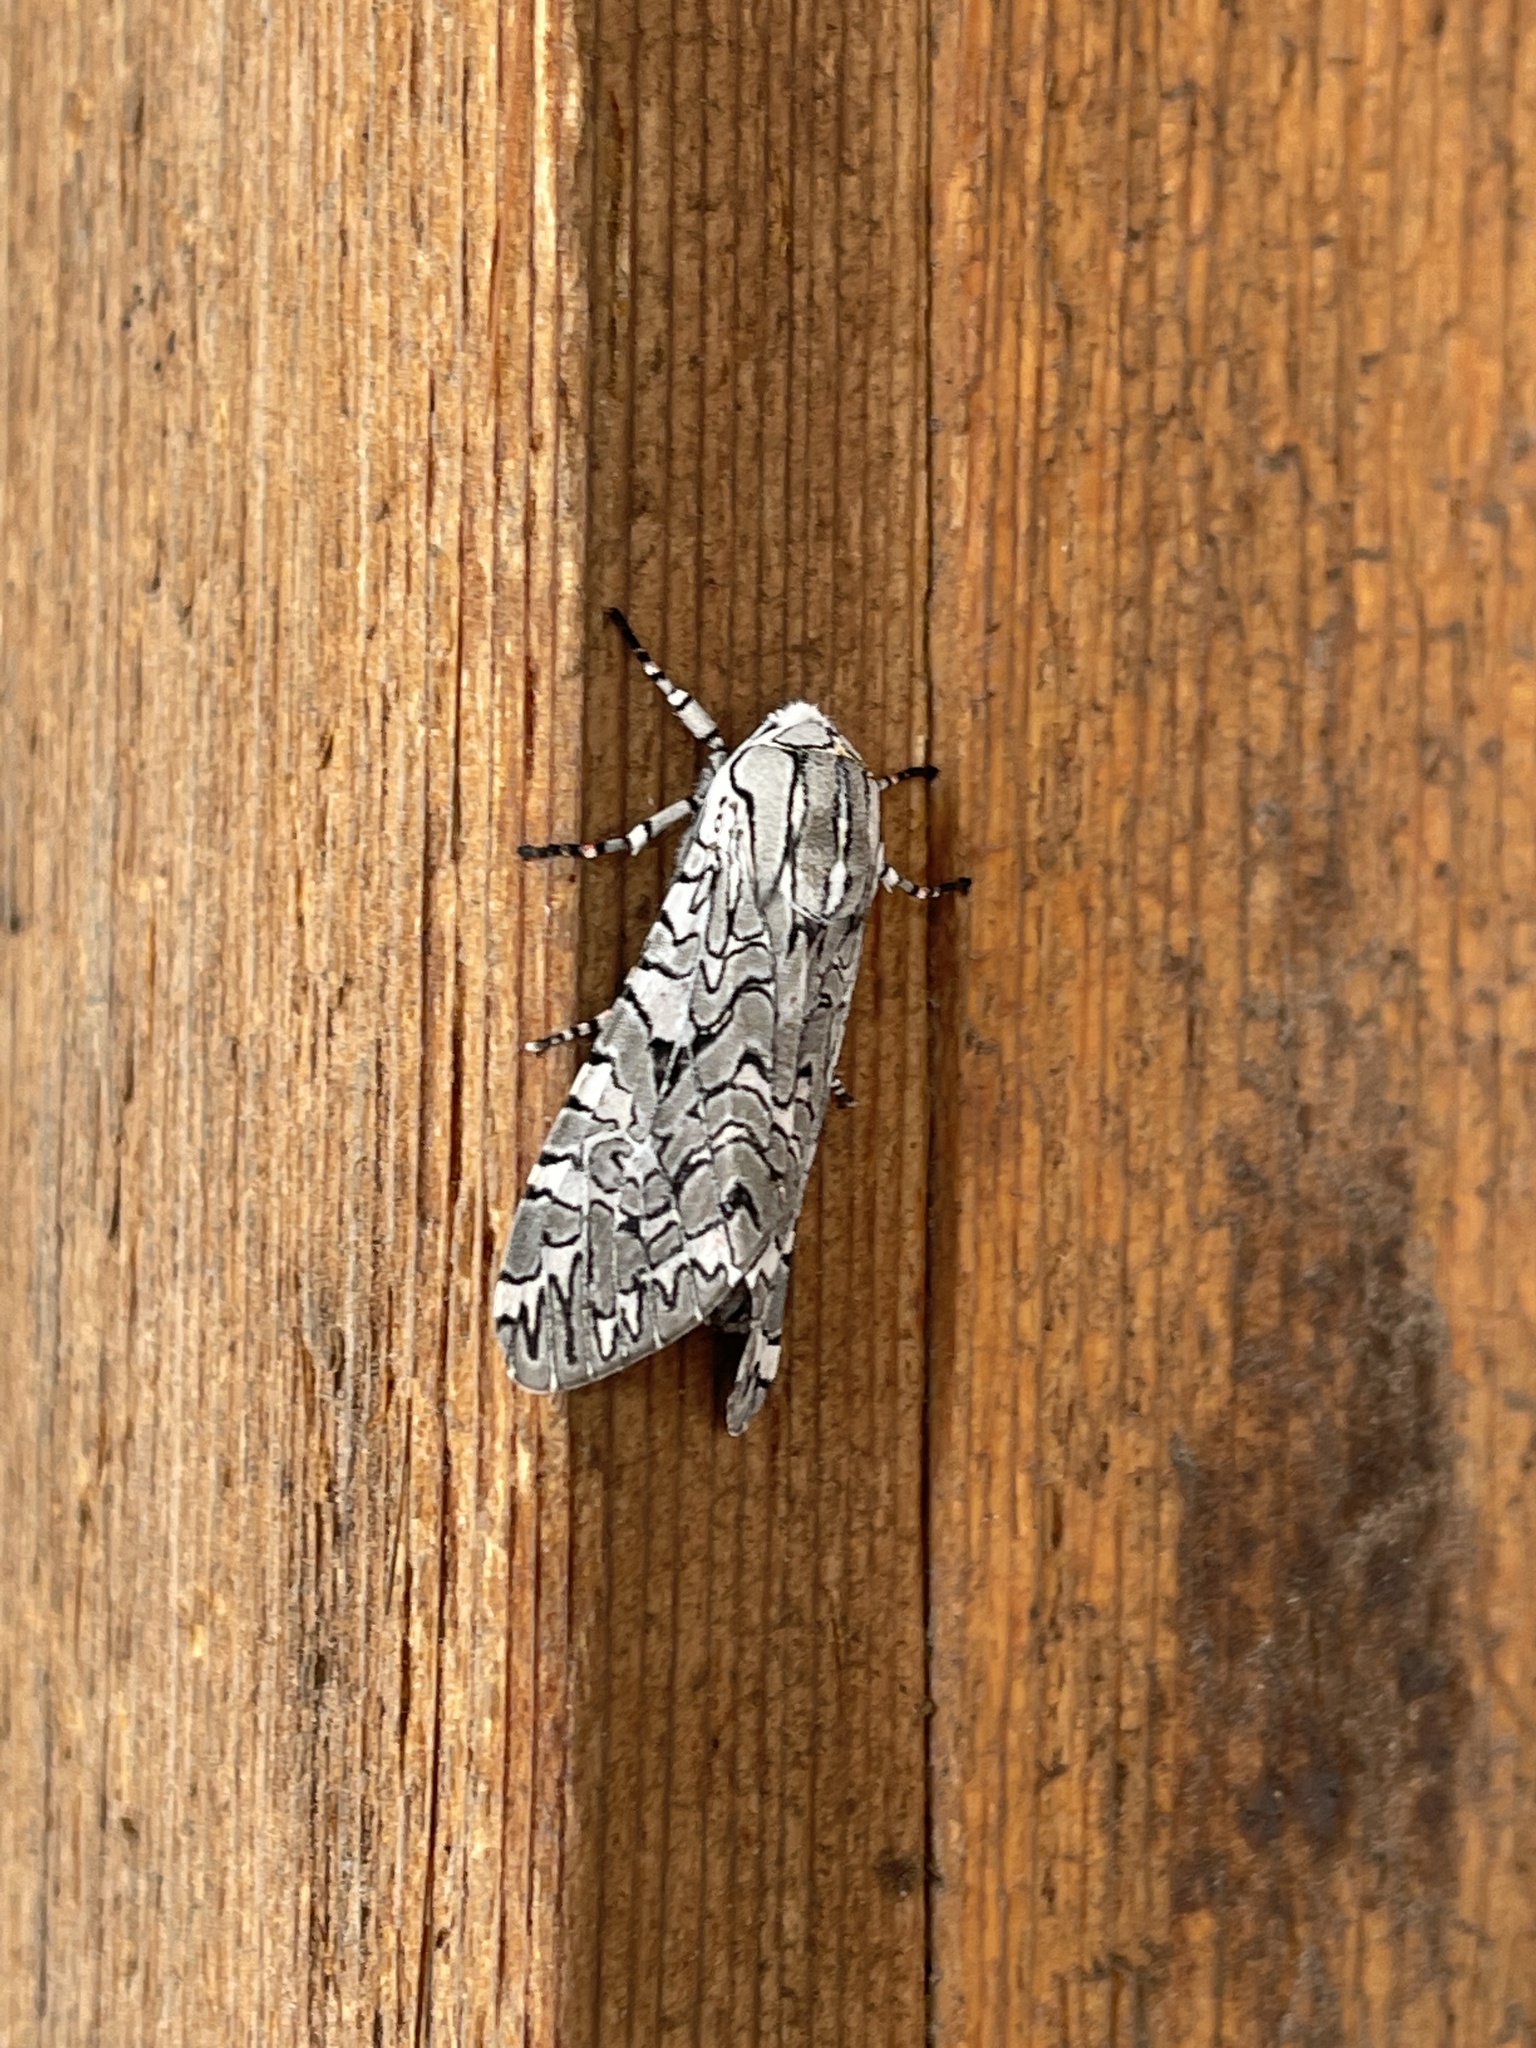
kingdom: Animalia
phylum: Arthropoda
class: Insecta
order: Lepidoptera
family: Erebidae
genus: Arachnis
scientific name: Arachnis picta
